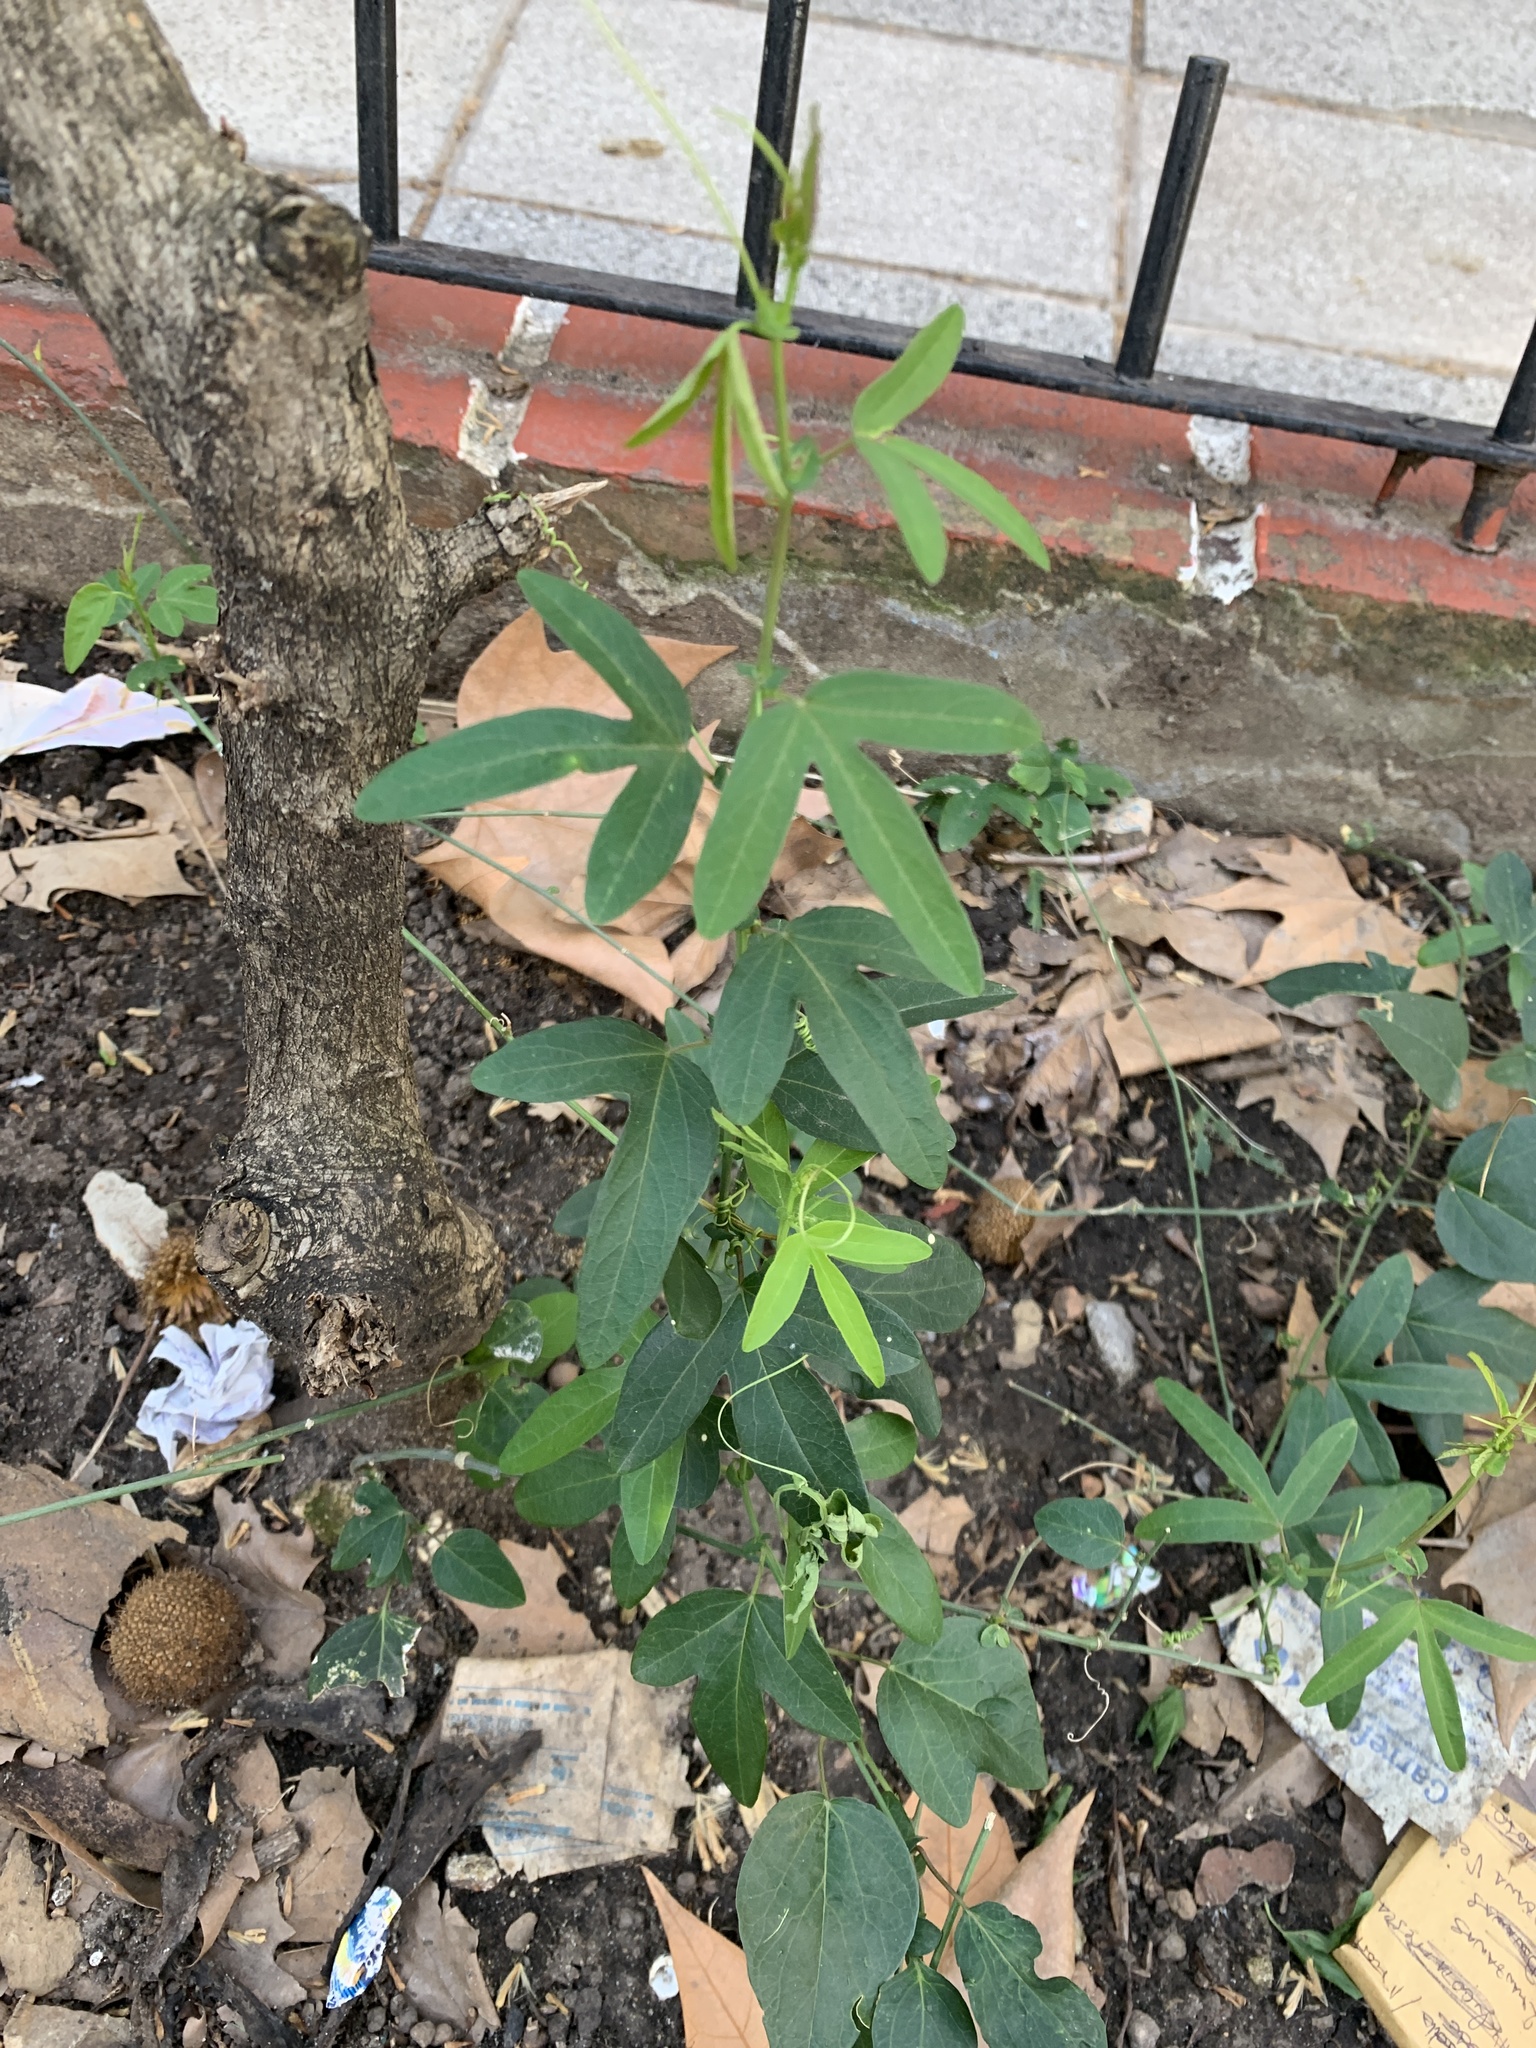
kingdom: Plantae
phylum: Tracheophyta
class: Magnoliopsida
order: Malpighiales
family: Passifloraceae
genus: Passiflora
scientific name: Passiflora caerulea
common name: Blue passionflower
